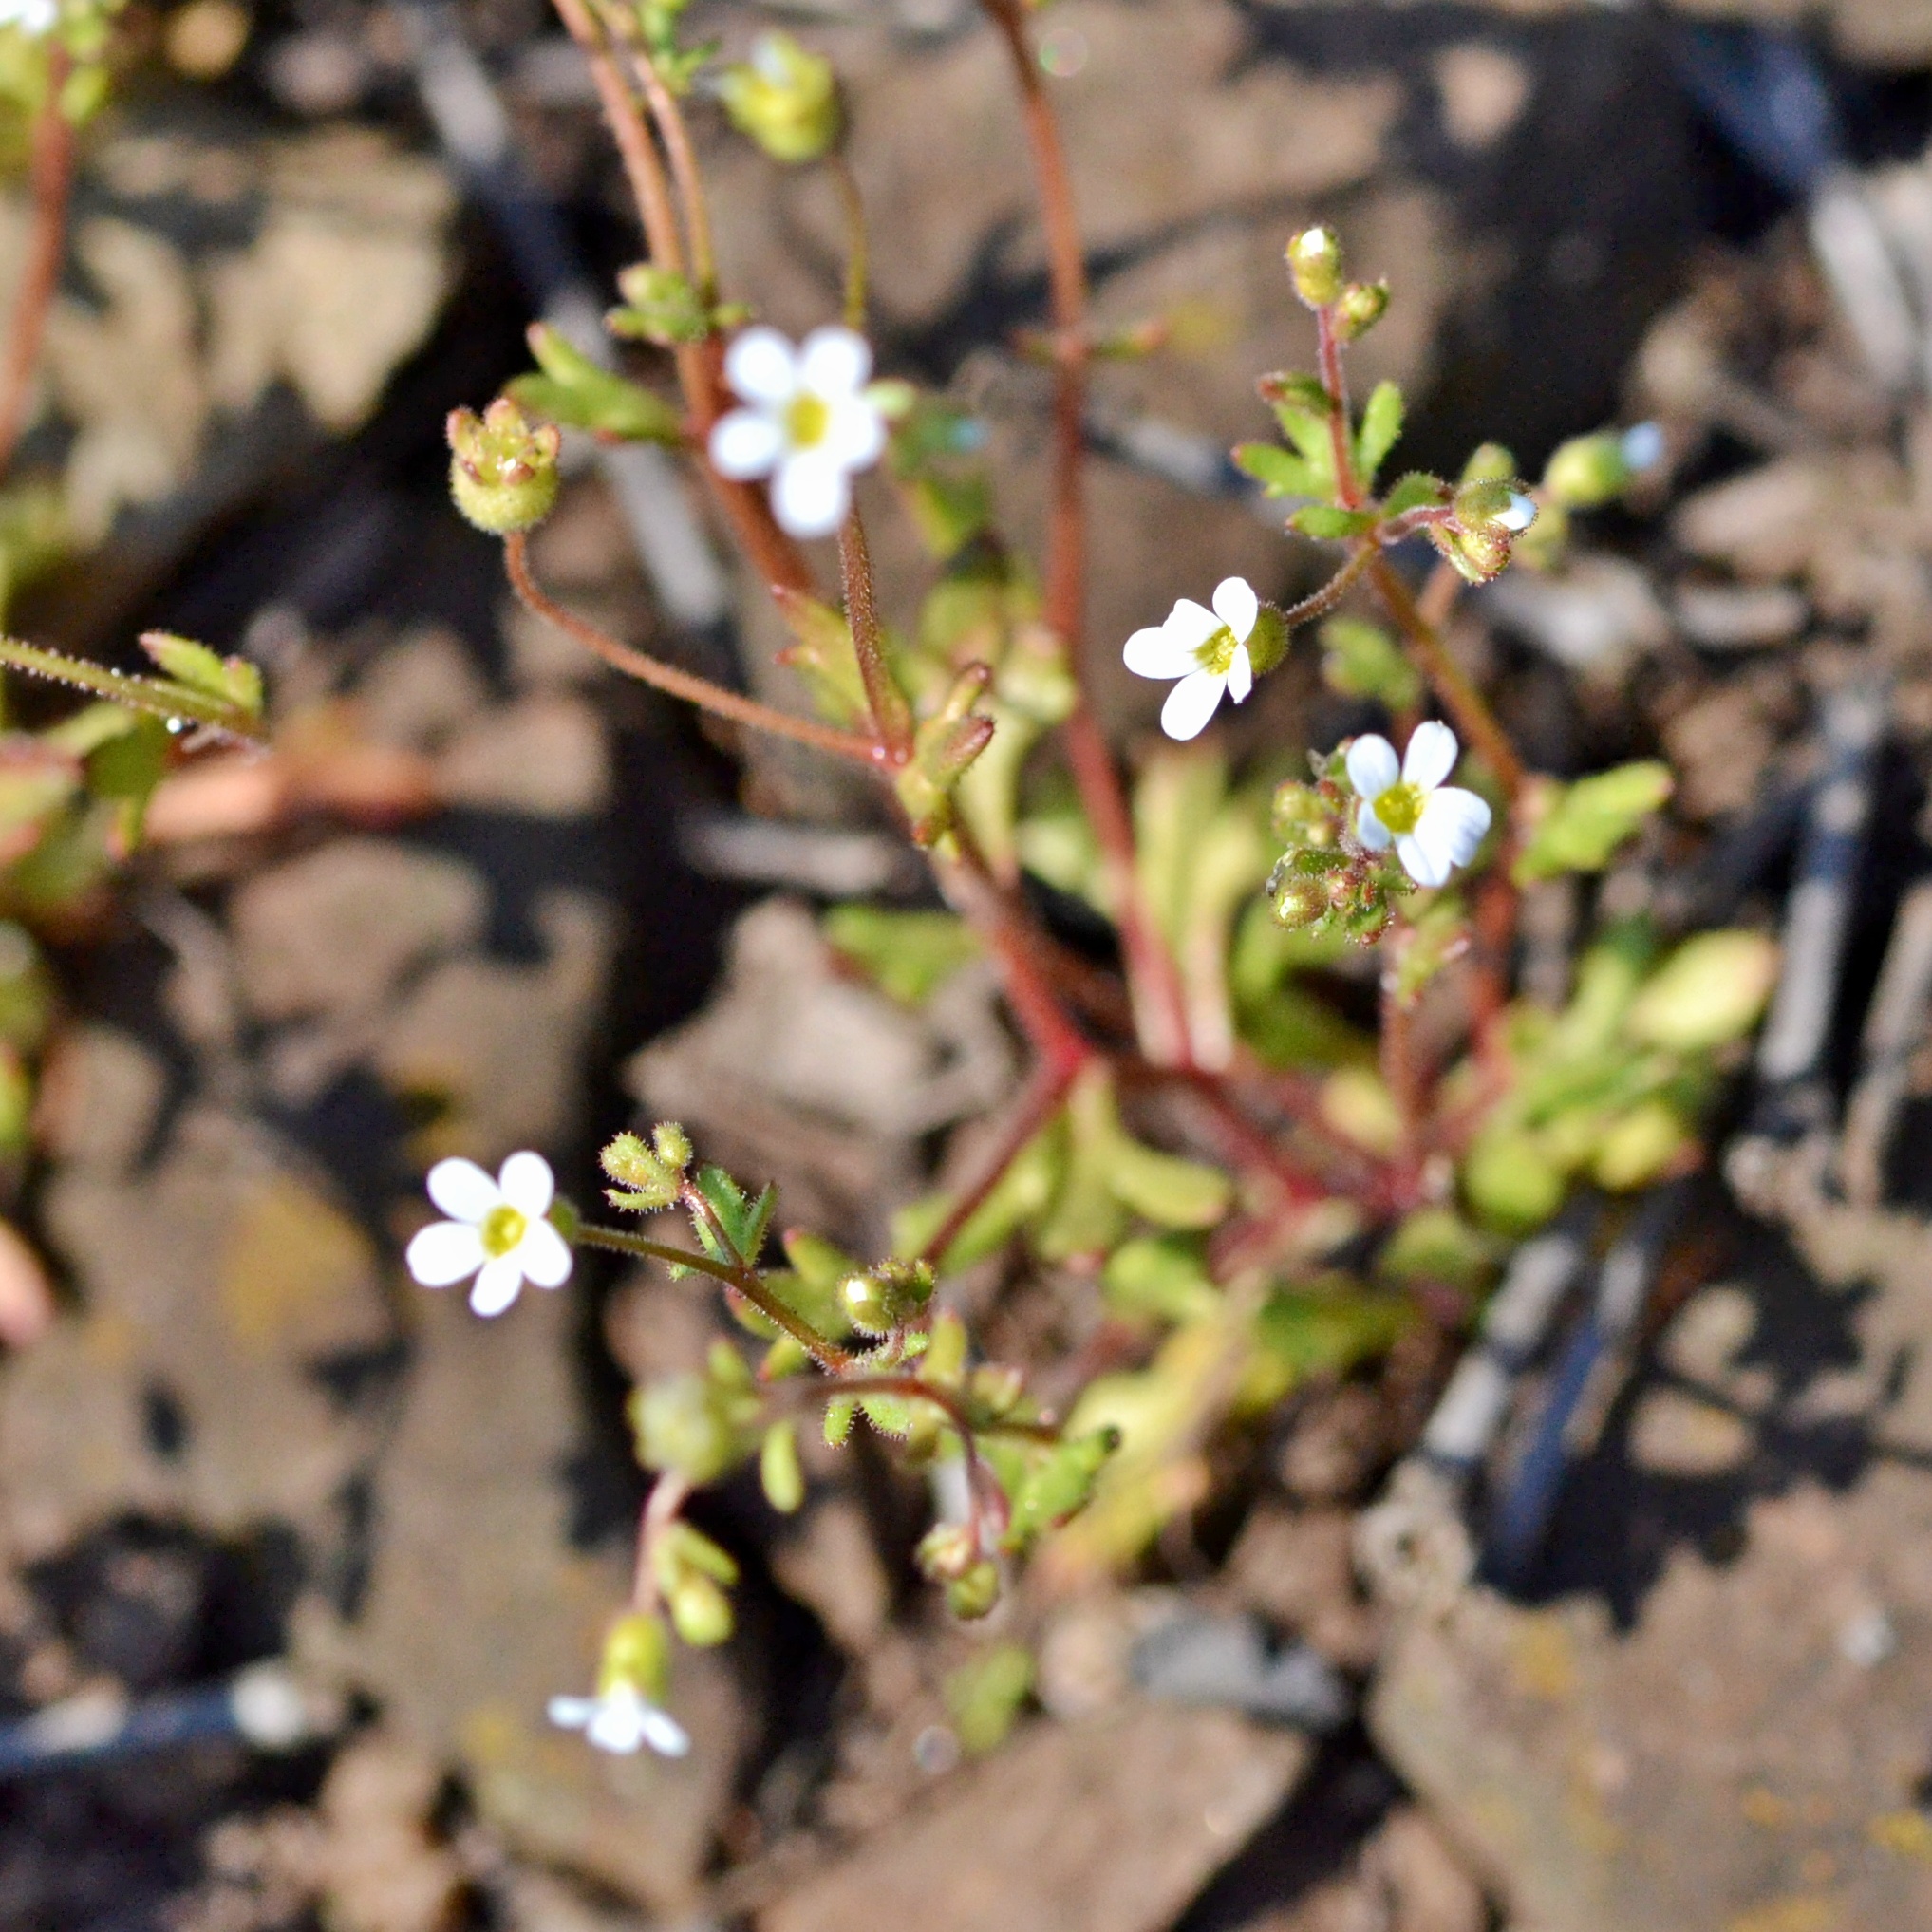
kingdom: Plantae
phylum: Tracheophyta
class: Magnoliopsida
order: Saxifragales
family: Saxifragaceae
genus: Saxifraga
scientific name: Saxifraga tridactylites
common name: Rue-leaved saxifrage
